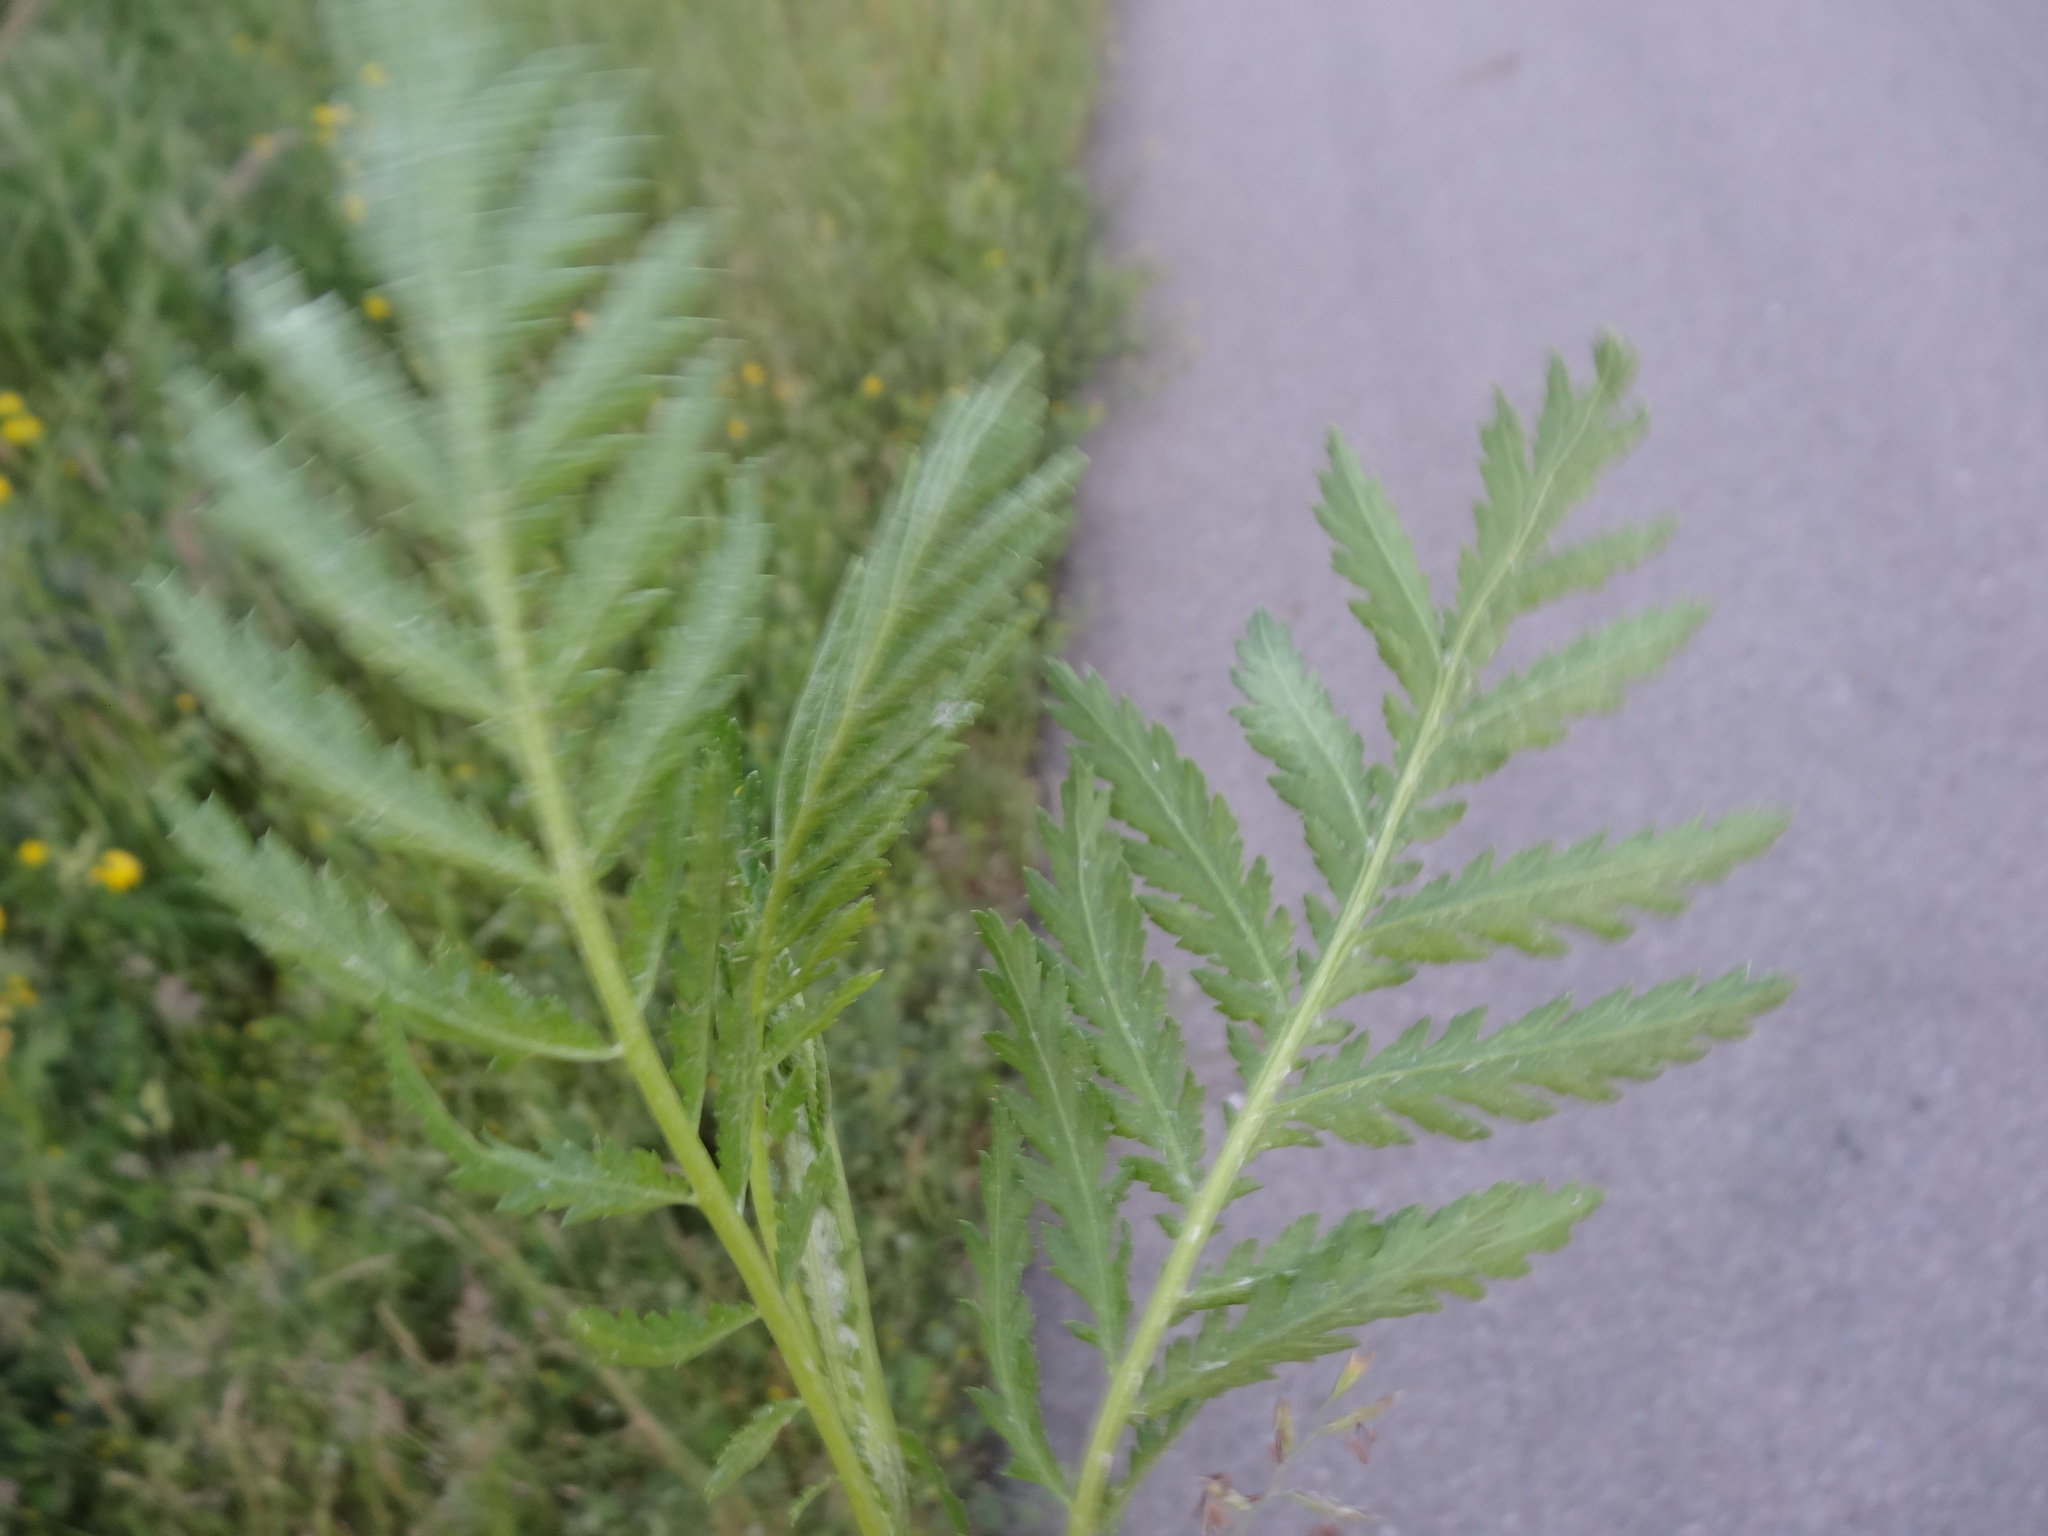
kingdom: Plantae
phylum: Tracheophyta
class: Magnoliopsida
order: Asterales
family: Asteraceae
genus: Tanacetum
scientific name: Tanacetum vulgare
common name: Common tansy
